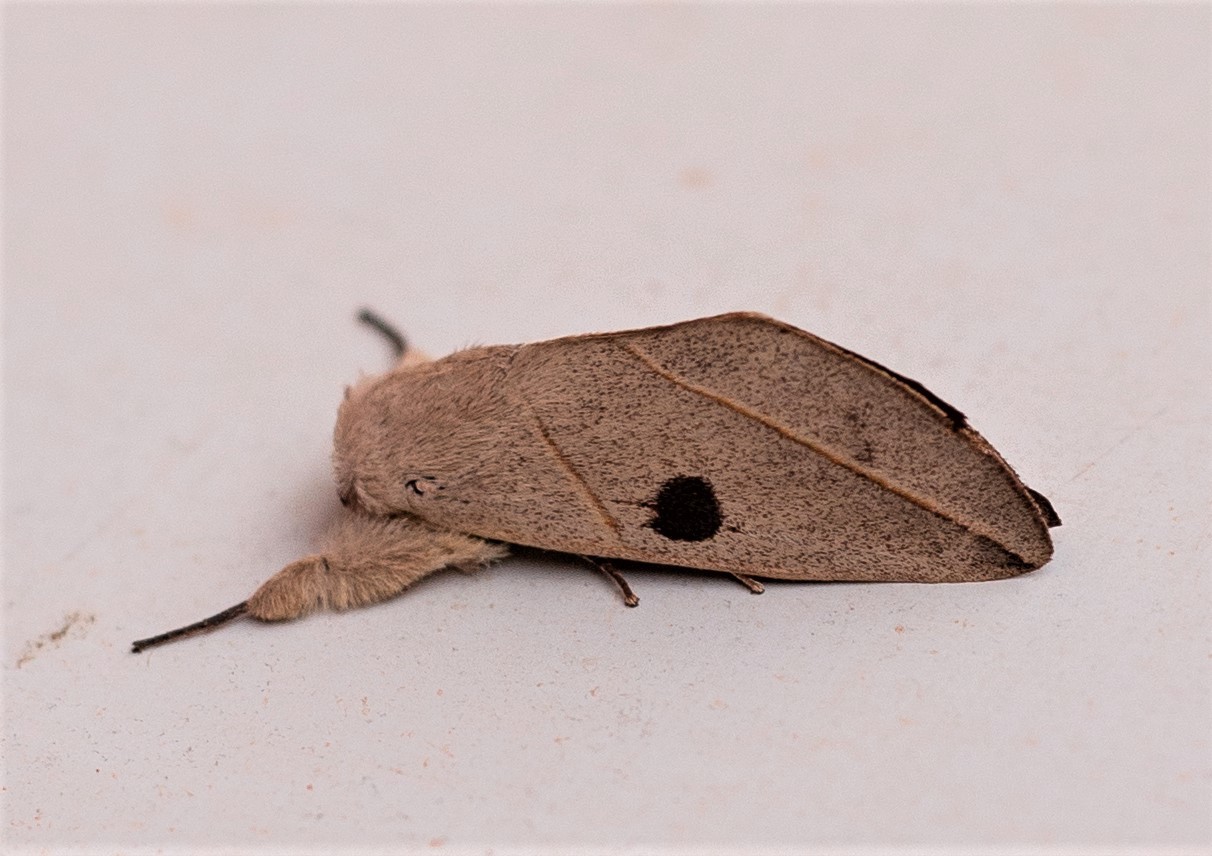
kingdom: Animalia
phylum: Arthropoda
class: Insecta
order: Lepidoptera
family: Notodontidae
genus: Hemiceras
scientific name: Hemiceras lissanella
